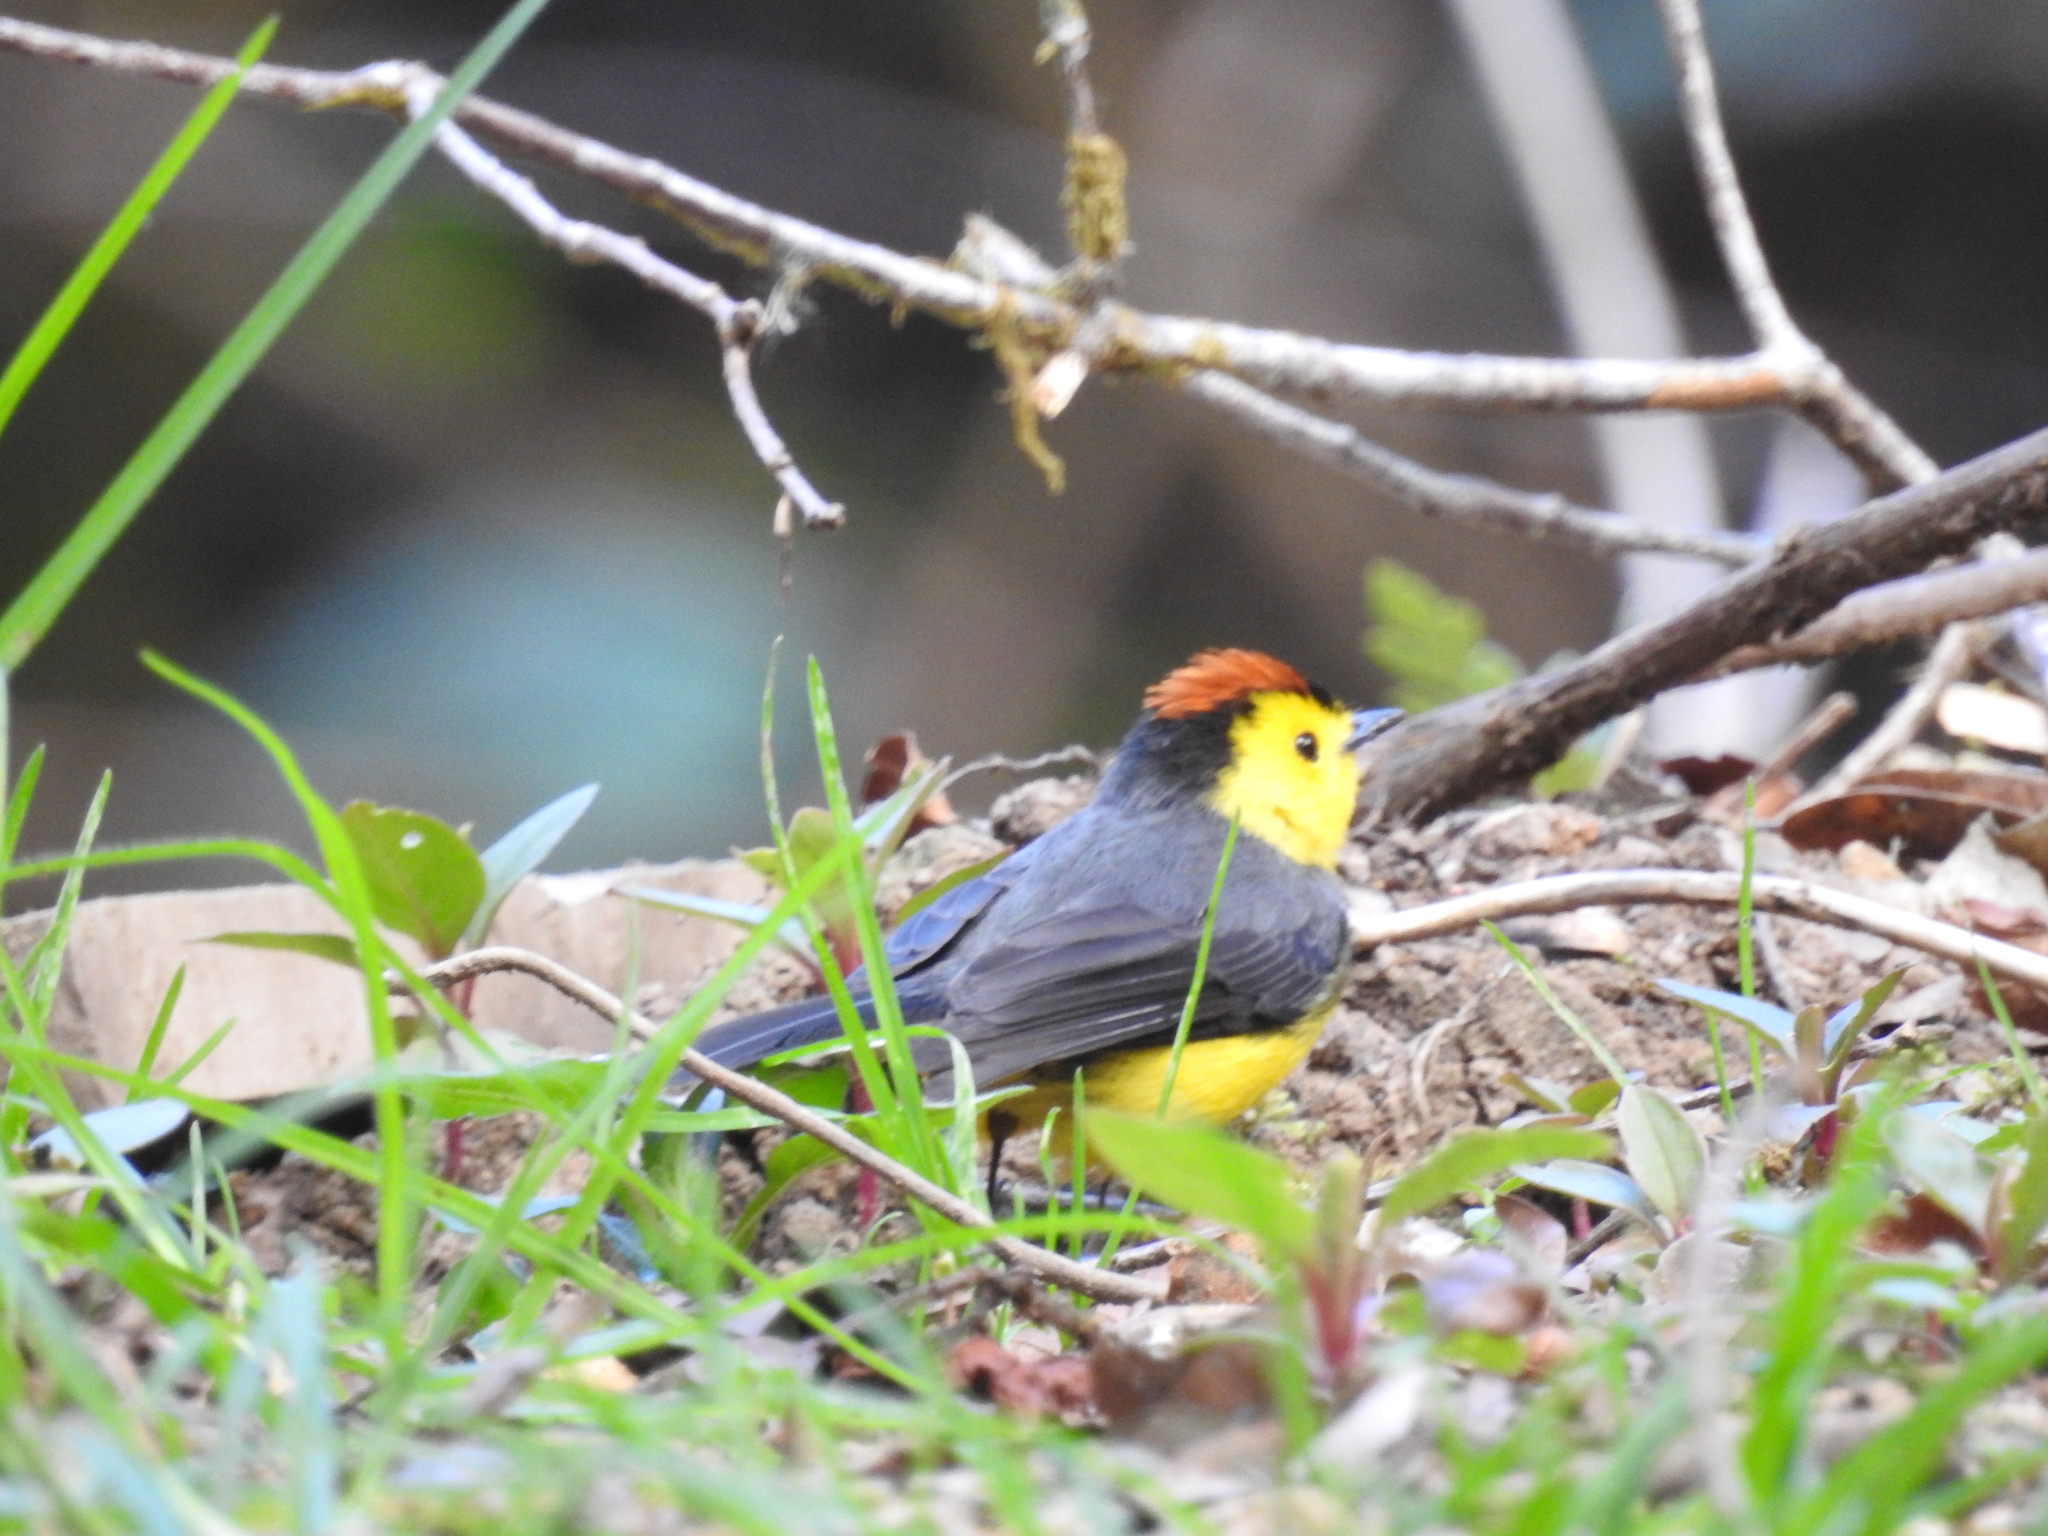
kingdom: Animalia
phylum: Chordata
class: Aves
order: Passeriformes
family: Parulidae
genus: Myioborus
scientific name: Myioborus torquatus
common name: Collared whitestart
